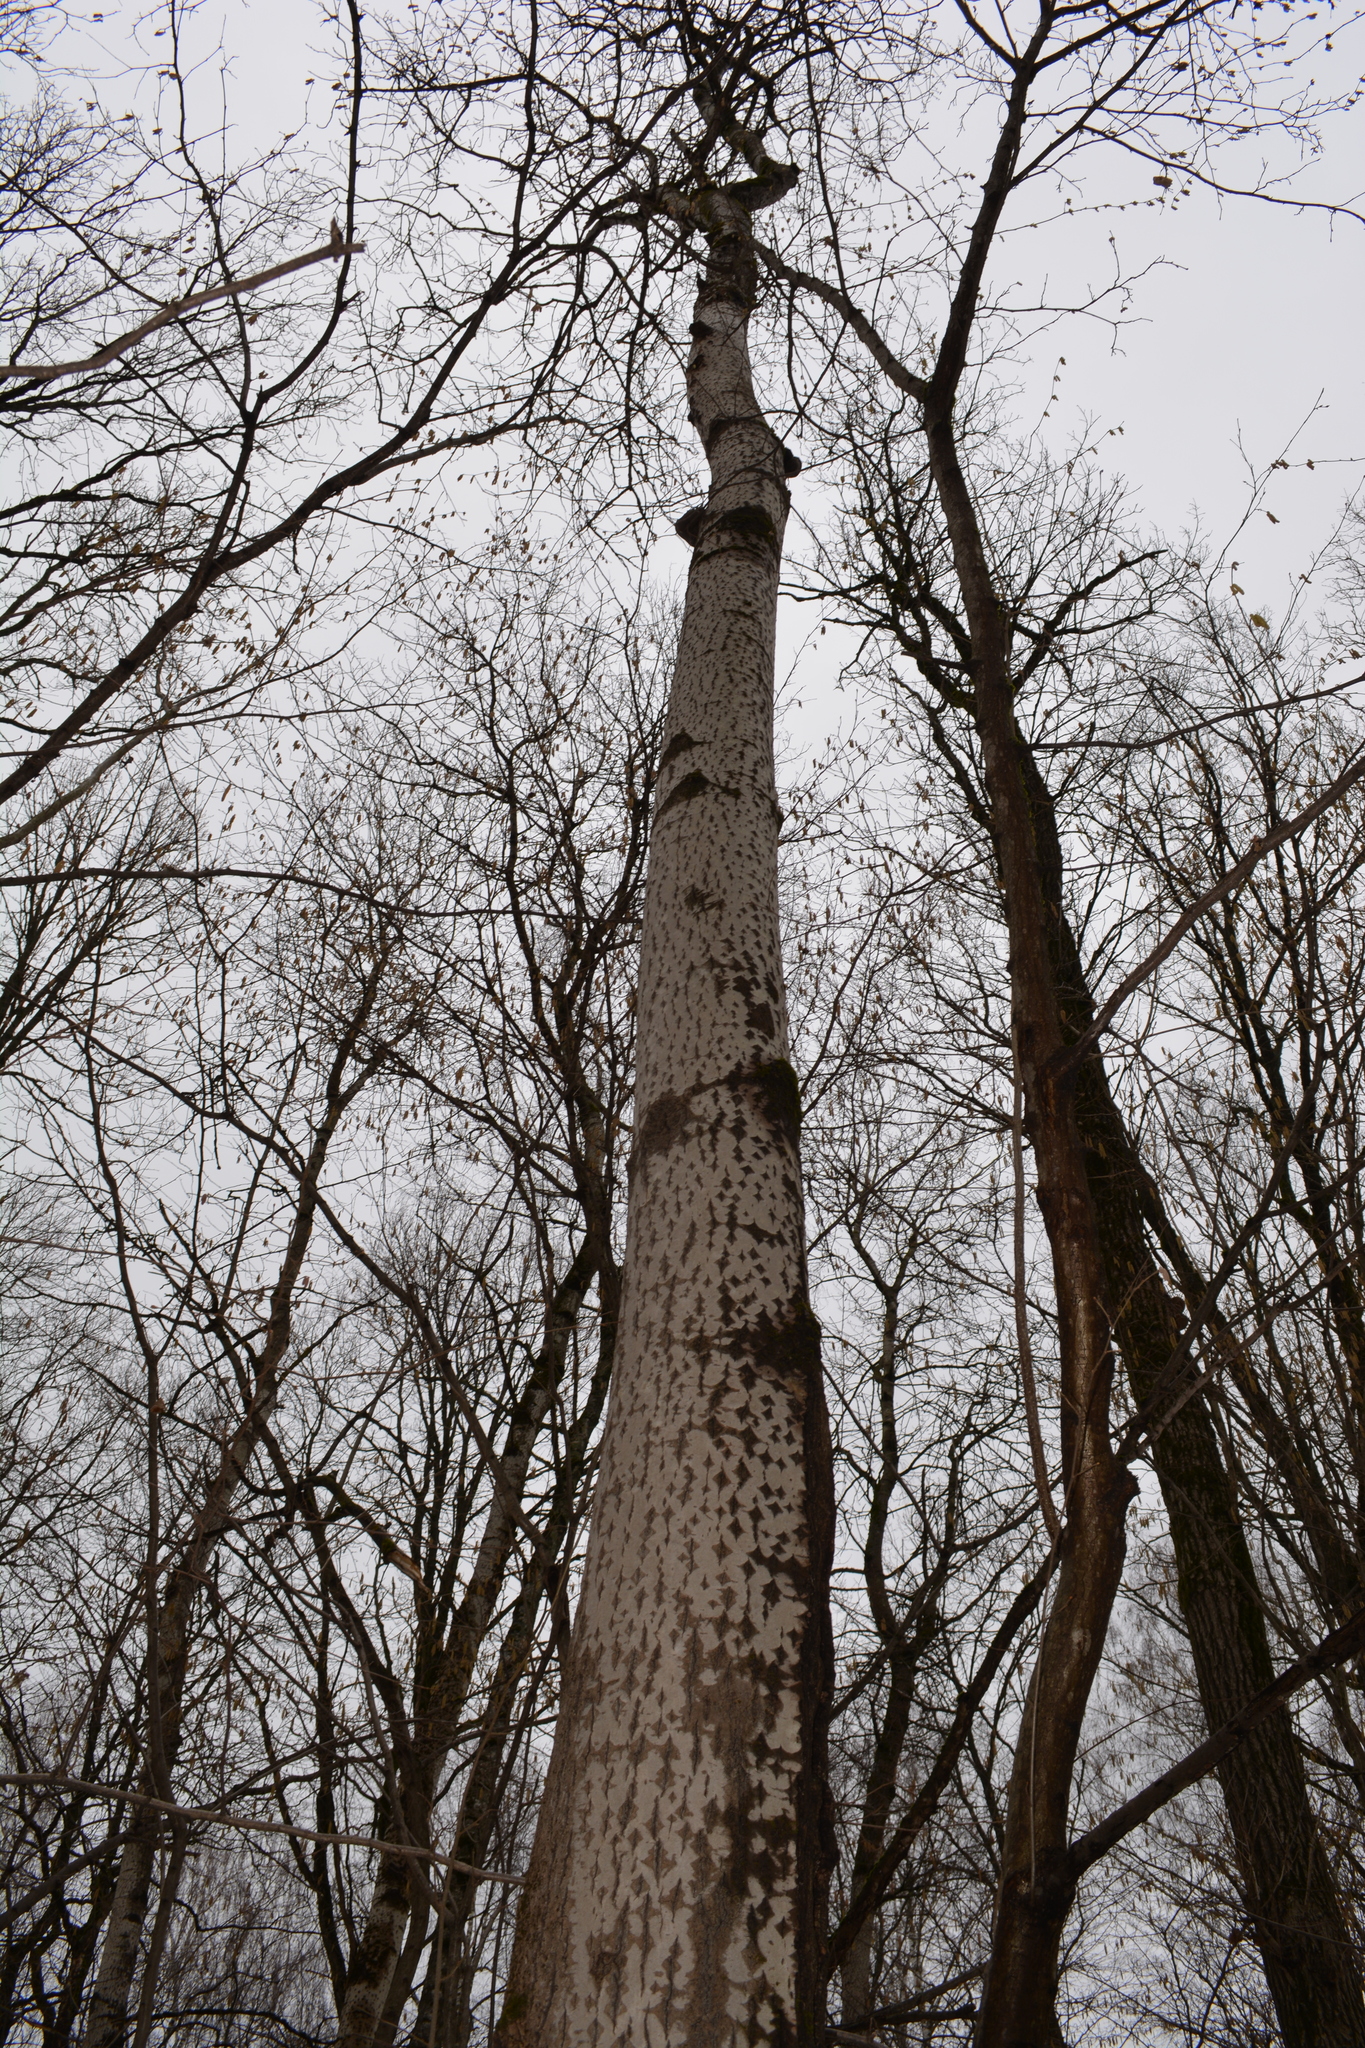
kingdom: Plantae
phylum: Tracheophyta
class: Magnoliopsida
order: Malpighiales
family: Salicaceae
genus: Populus
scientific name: Populus tremula
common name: European aspen
